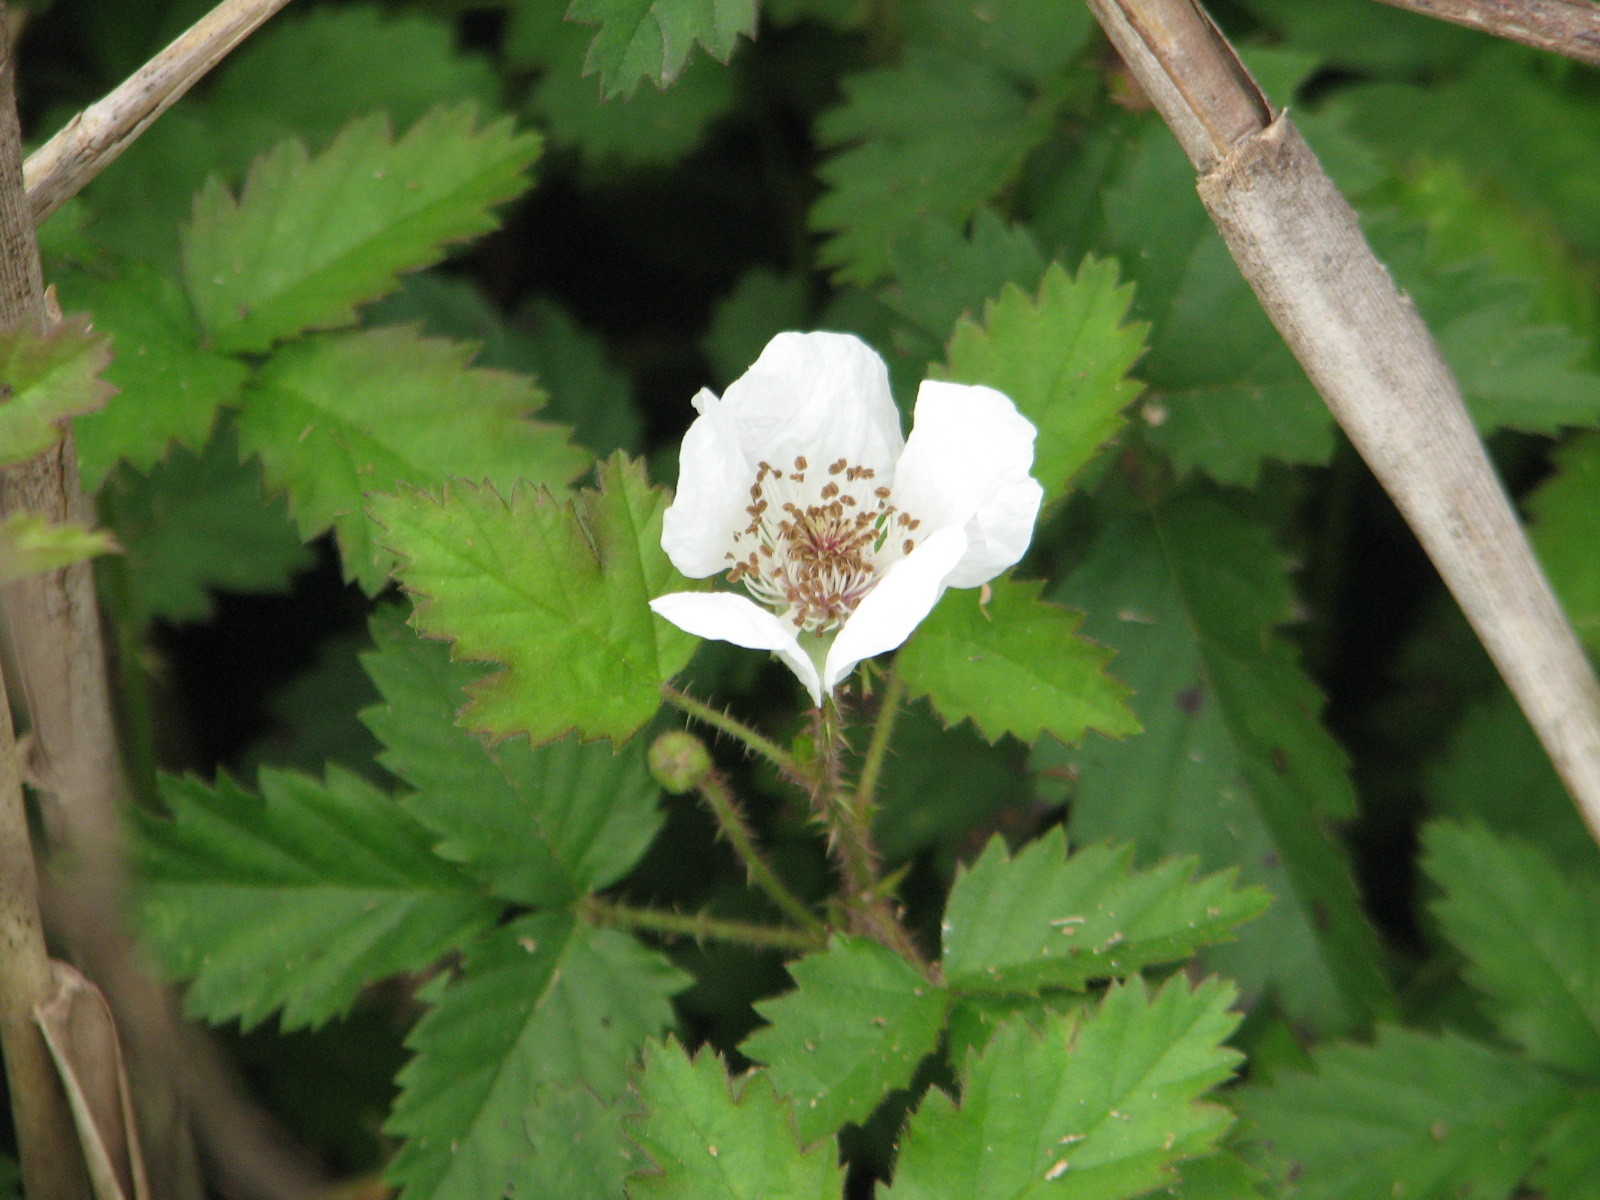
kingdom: Plantae
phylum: Tracheophyta
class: Magnoliopsida
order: Rosales
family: Rosaceae
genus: Rubus
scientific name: Rubus trivialis
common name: Southern dewberry
